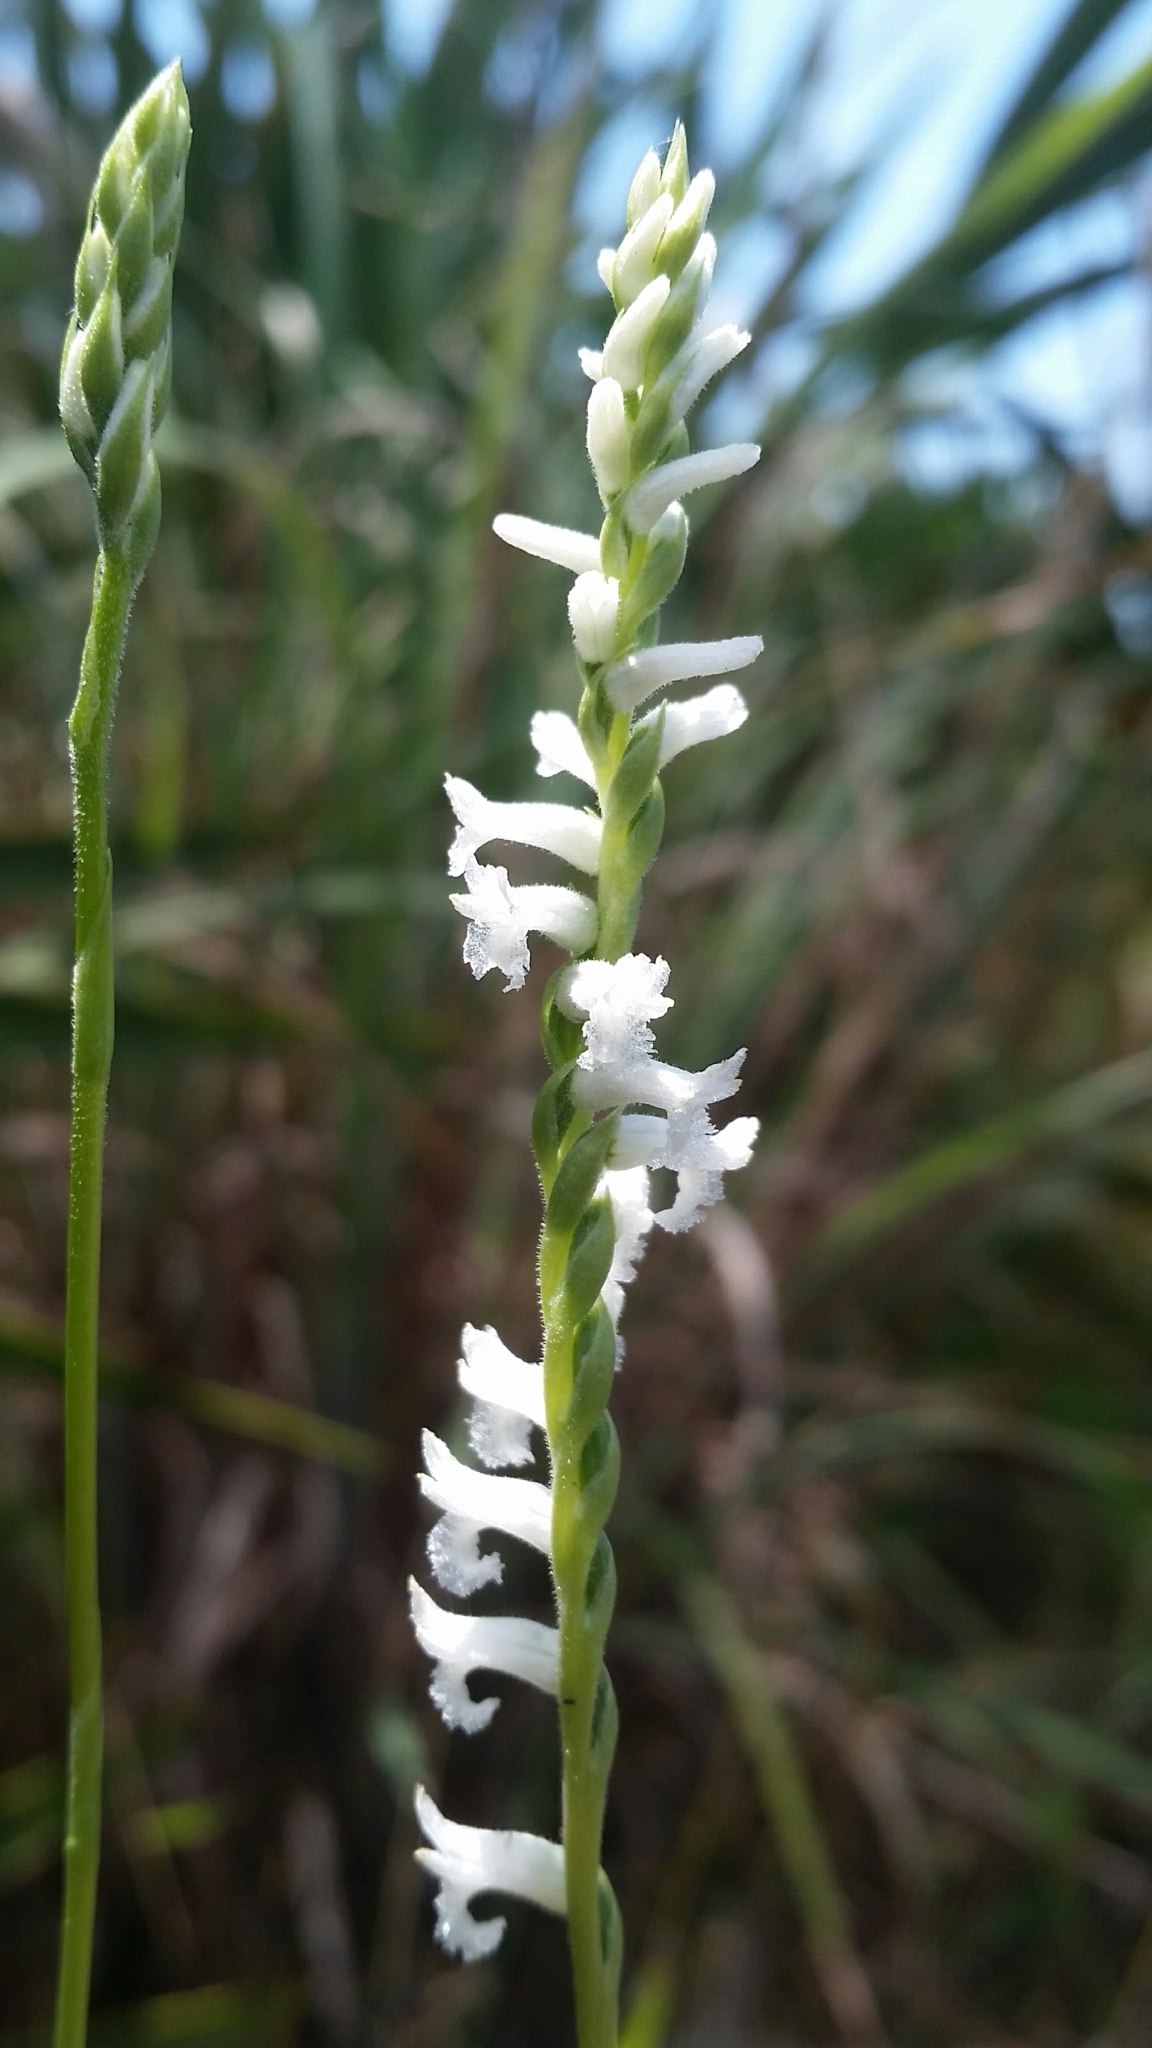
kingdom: Plantae
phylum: Tracheophyta
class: Liliopsida
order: Asparagales
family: Orchidaceae
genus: Spiranthes
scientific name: Spiranthes praecox
